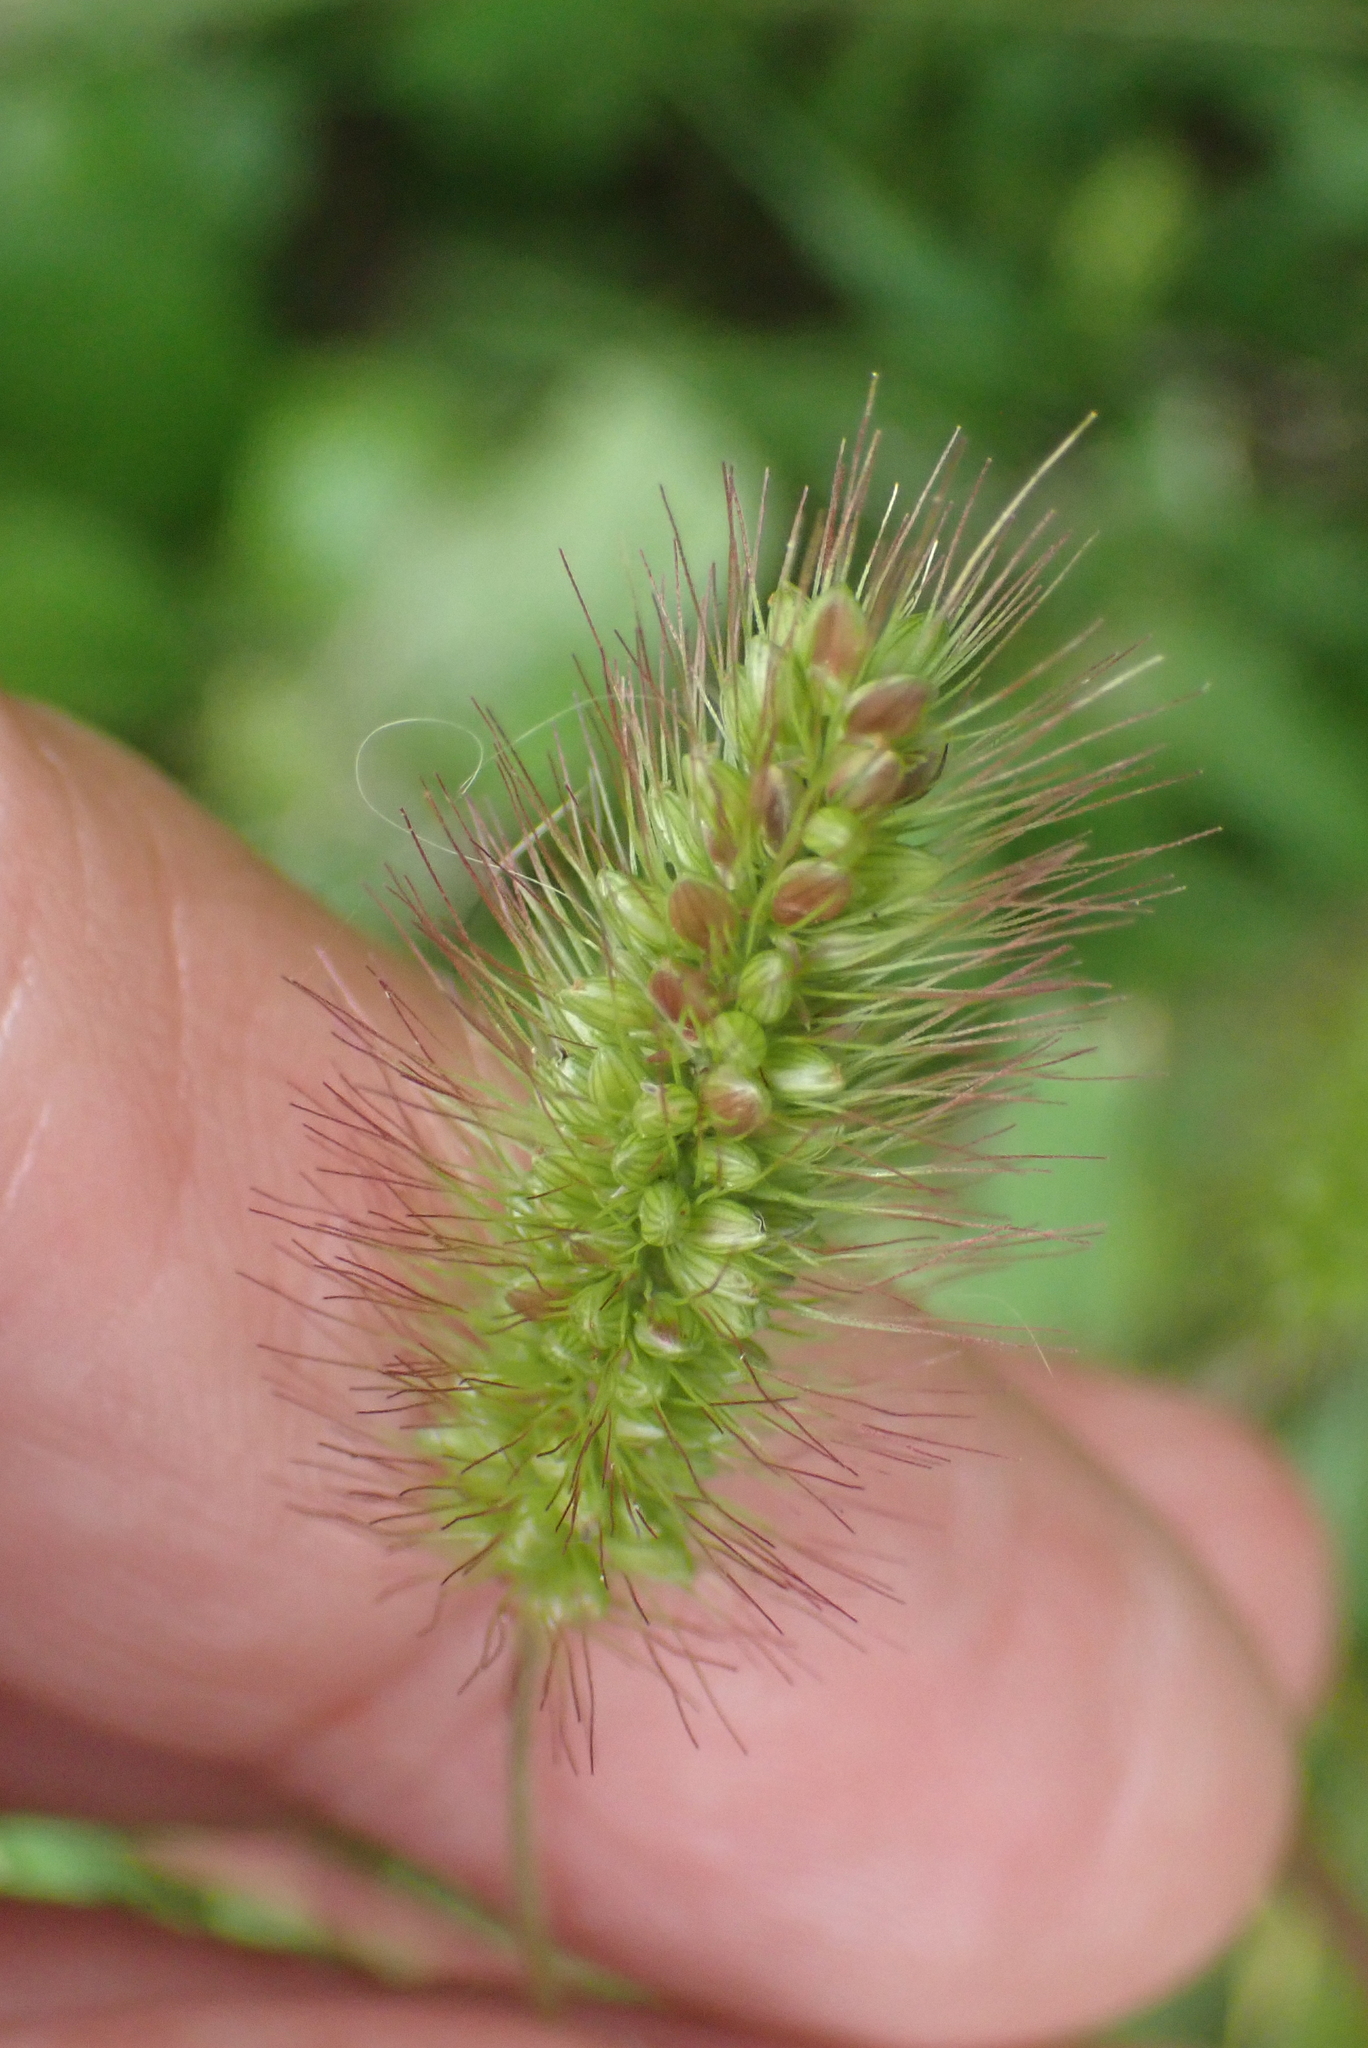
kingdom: Plantae
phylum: Tracheophyta
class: Liliopsida
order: Poales
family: Poaceae
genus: Setaria
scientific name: Setaria pumila
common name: Yellow bristle-grass
